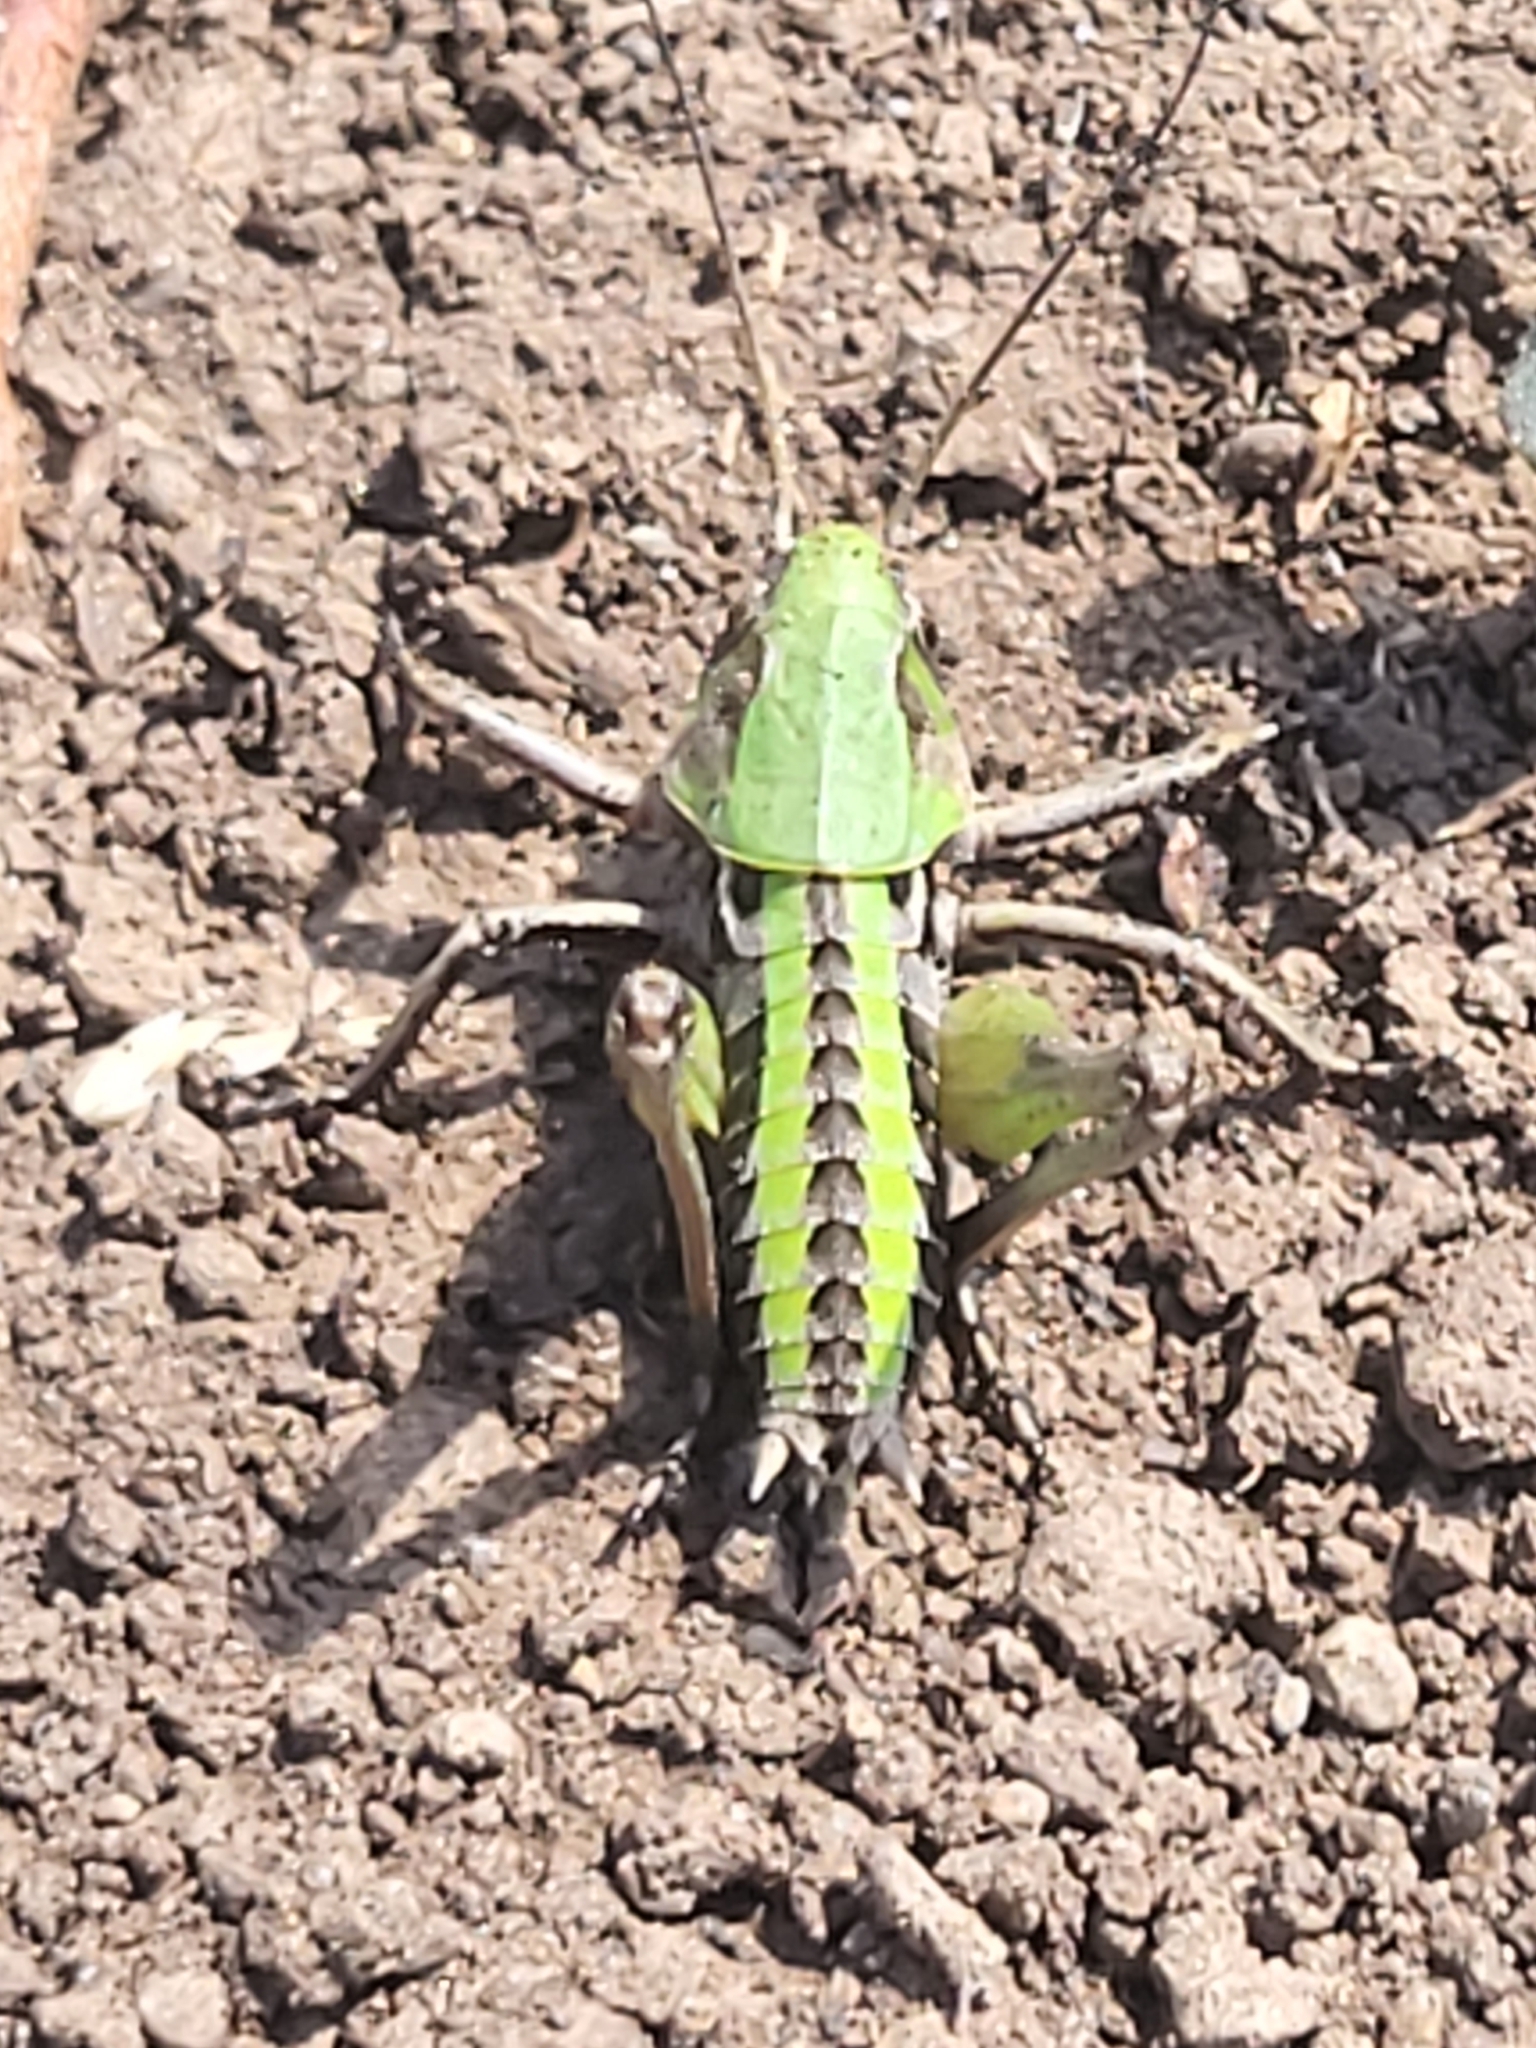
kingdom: Animalia
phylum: Arthropoda
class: Insecta
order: Orthoptera
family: Tettigoniidae
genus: Decticus
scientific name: Decticus verrucivorus
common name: Wart-biter
